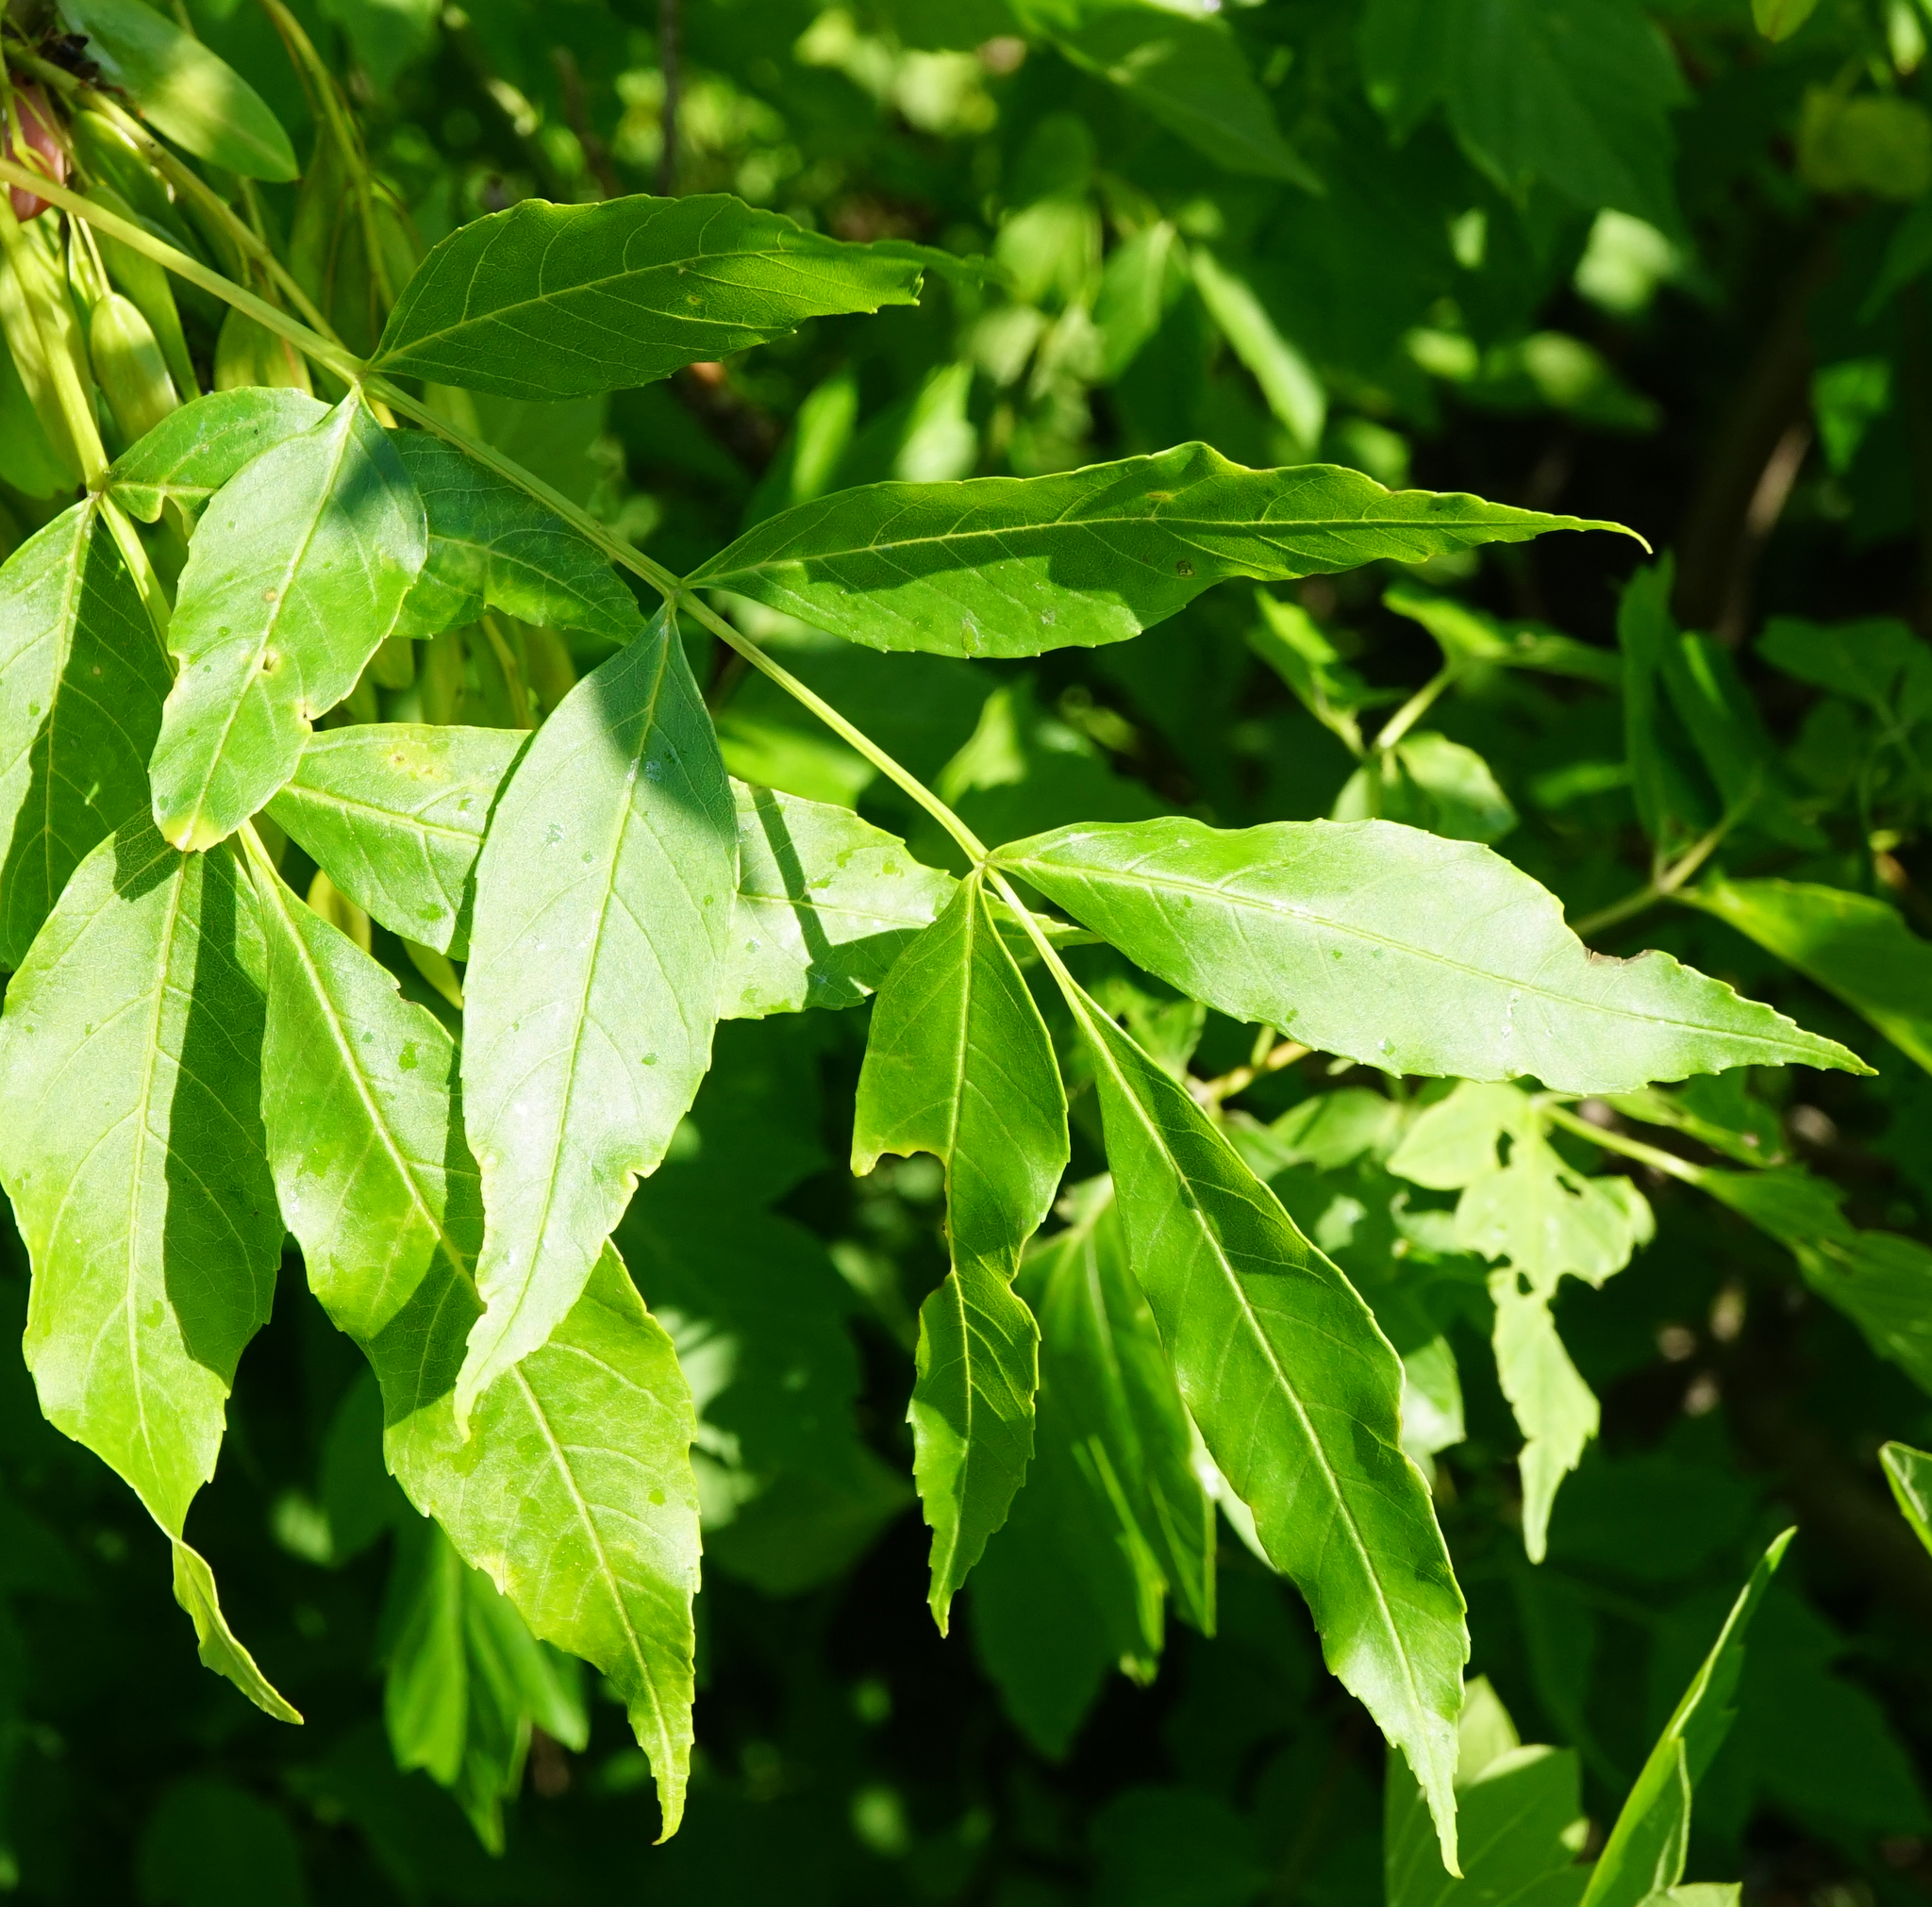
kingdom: Plantae
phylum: Tracheophyta
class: Magnoliopsida
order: Lamiales
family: Oleaceae
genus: Fraxinus
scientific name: Fraxinus excelsior
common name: European ash
